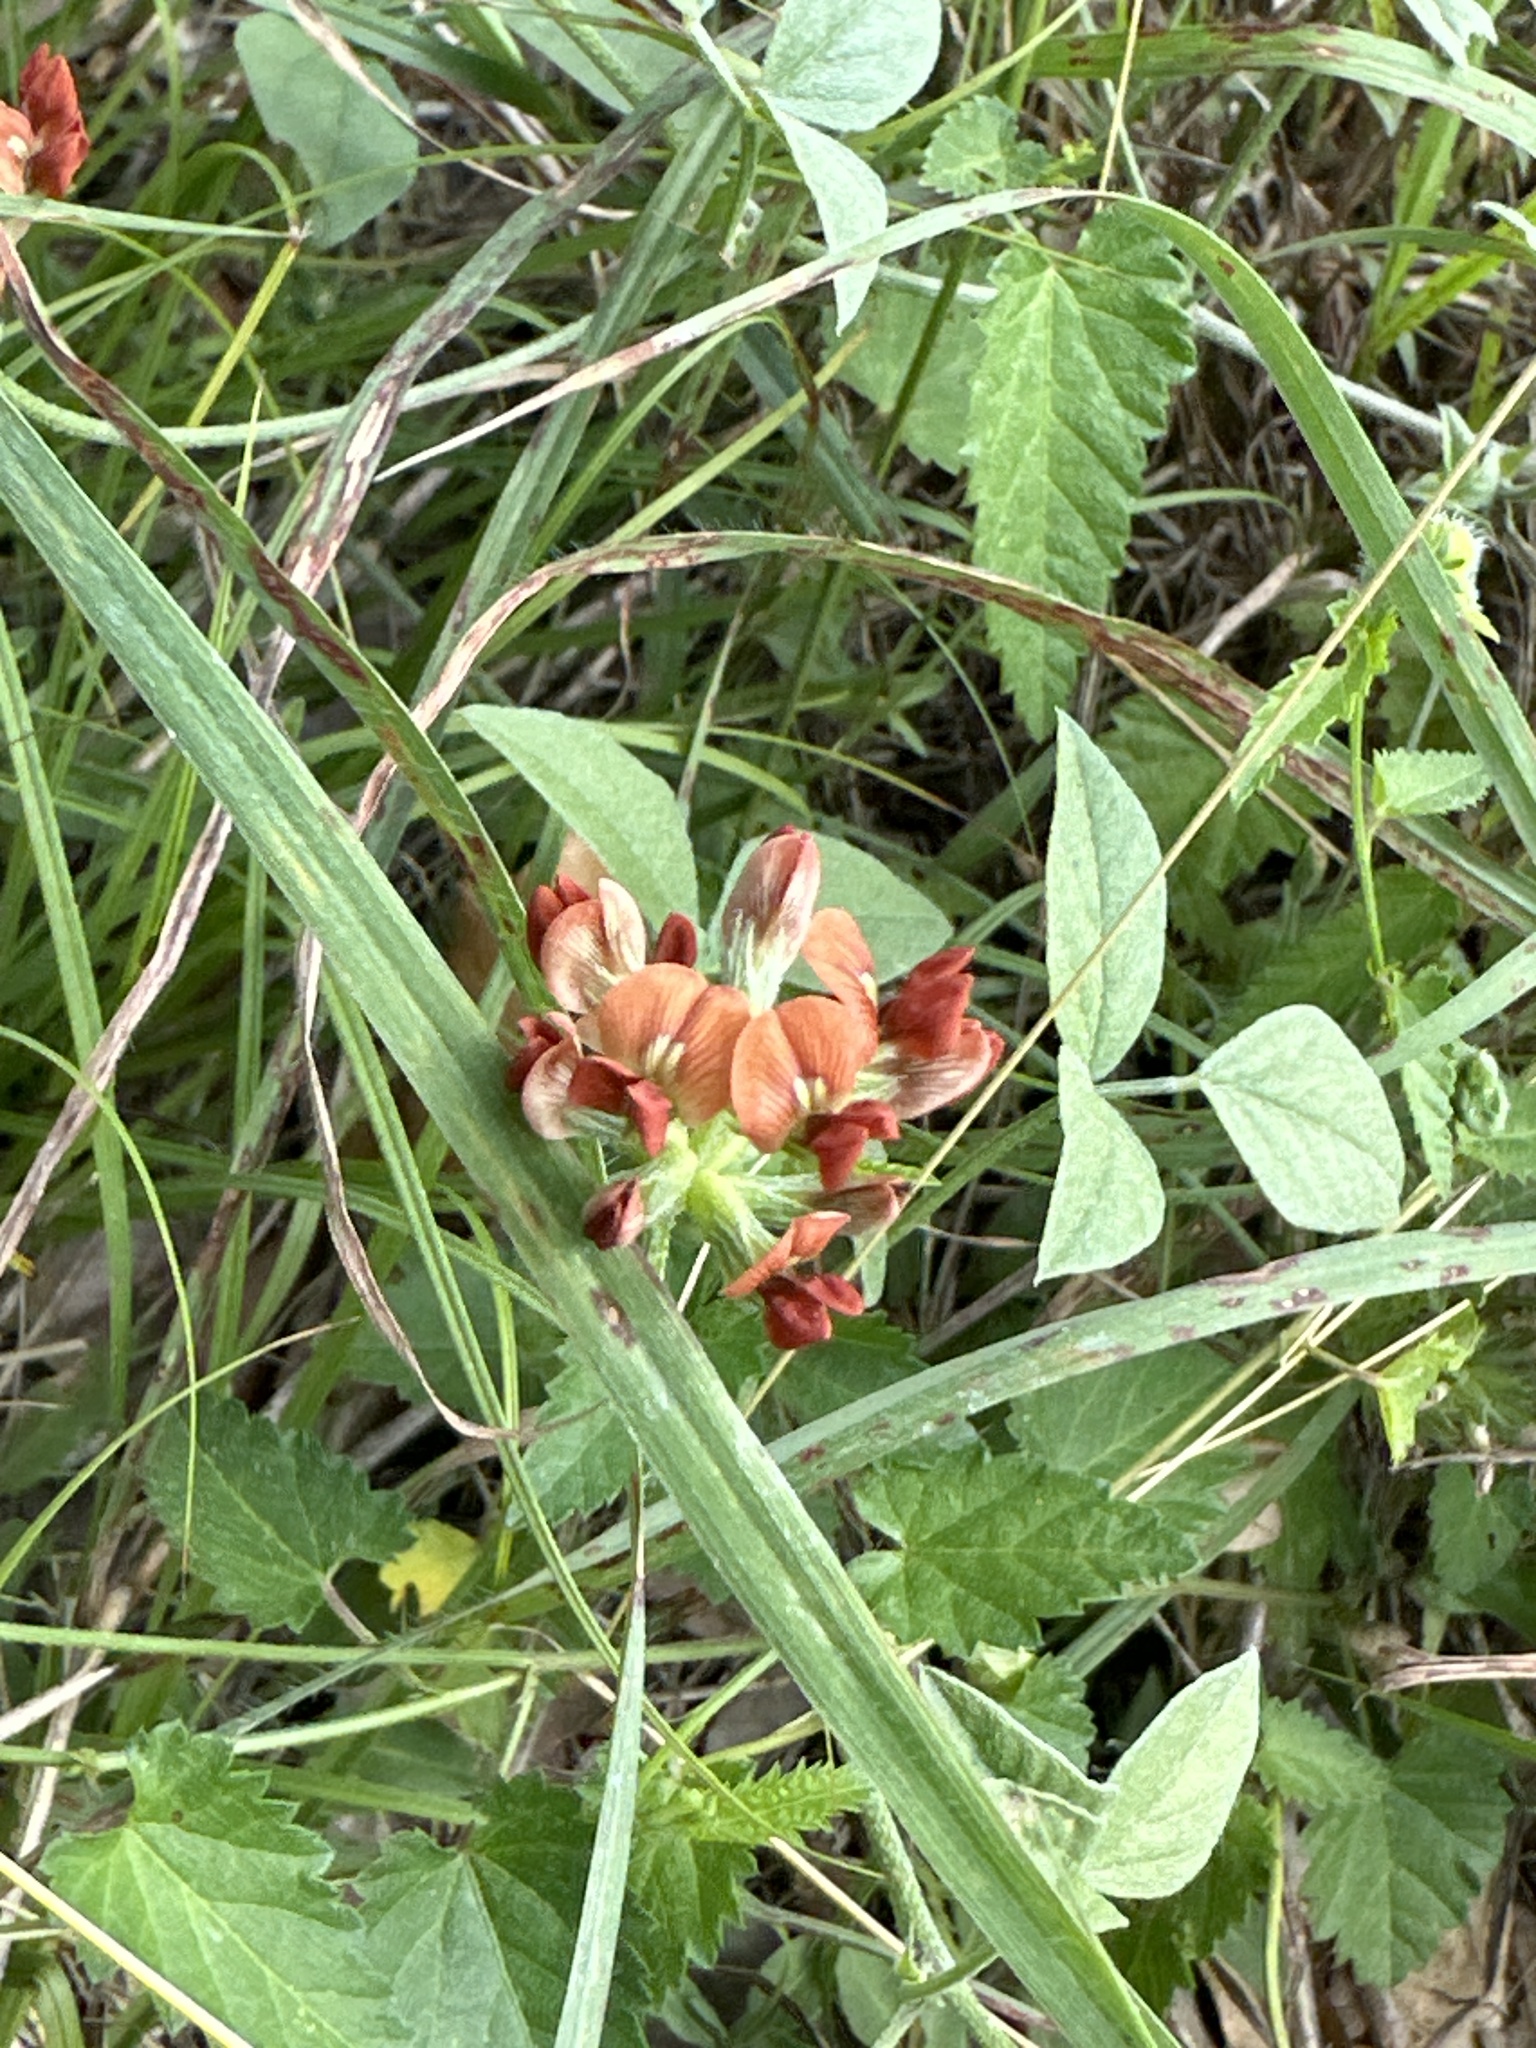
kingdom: Plantae
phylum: Tracheophyta
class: Magnoliopsida
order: Fabales
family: Fabaceae
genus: Pediomelum
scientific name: Pediomelum rhombifolium
